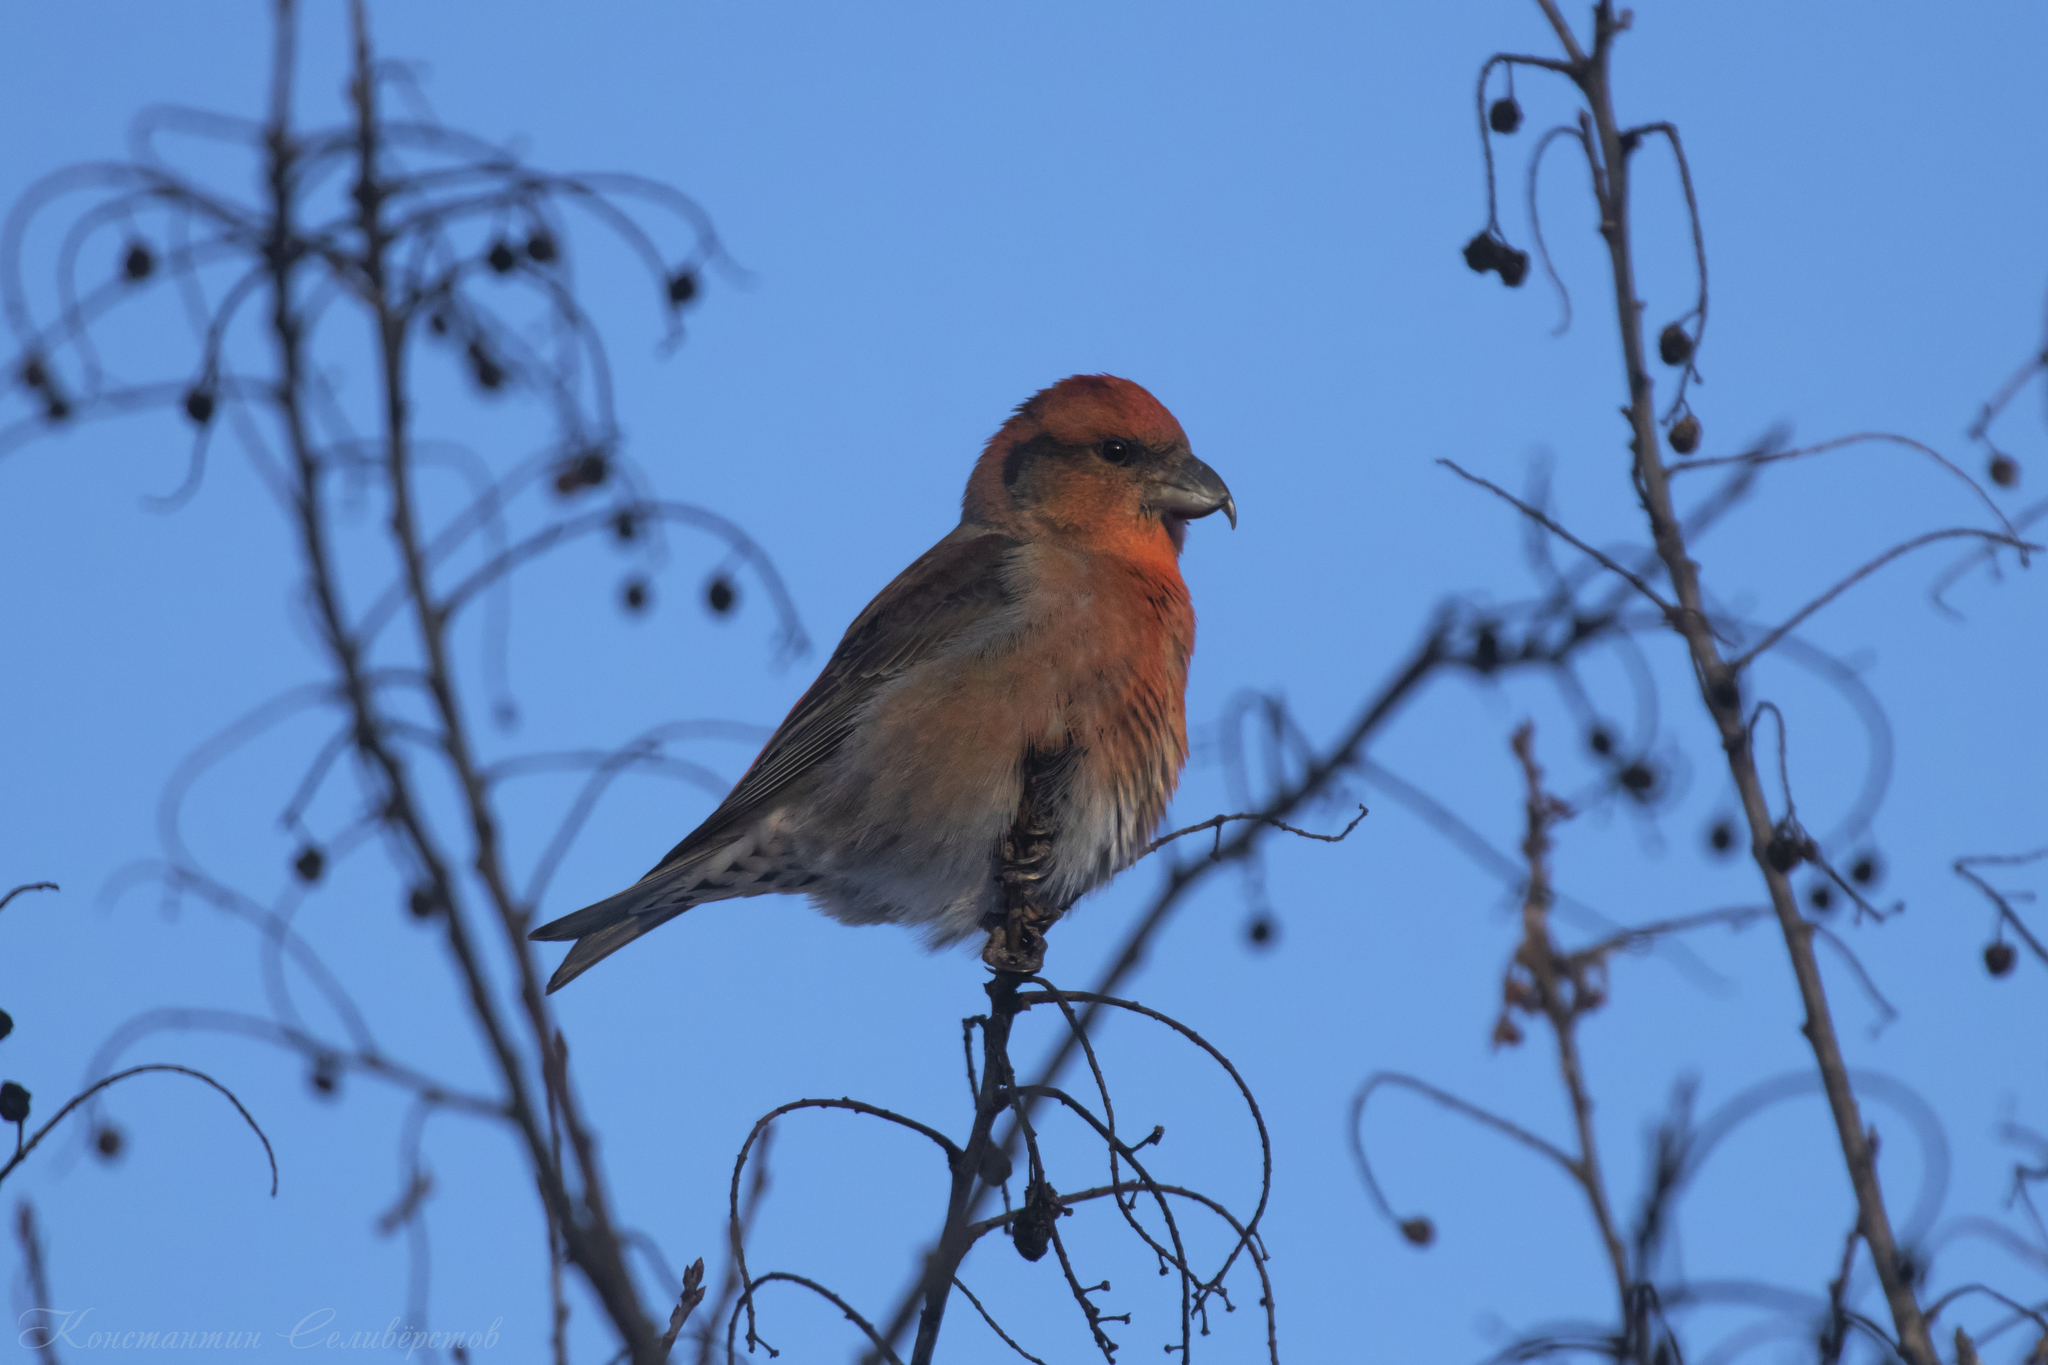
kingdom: Animalia
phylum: Chordata
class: Aves
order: Passeriformes
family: Fringillidae
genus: Loxia
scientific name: Loxia curvirostra
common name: Red crossbill
